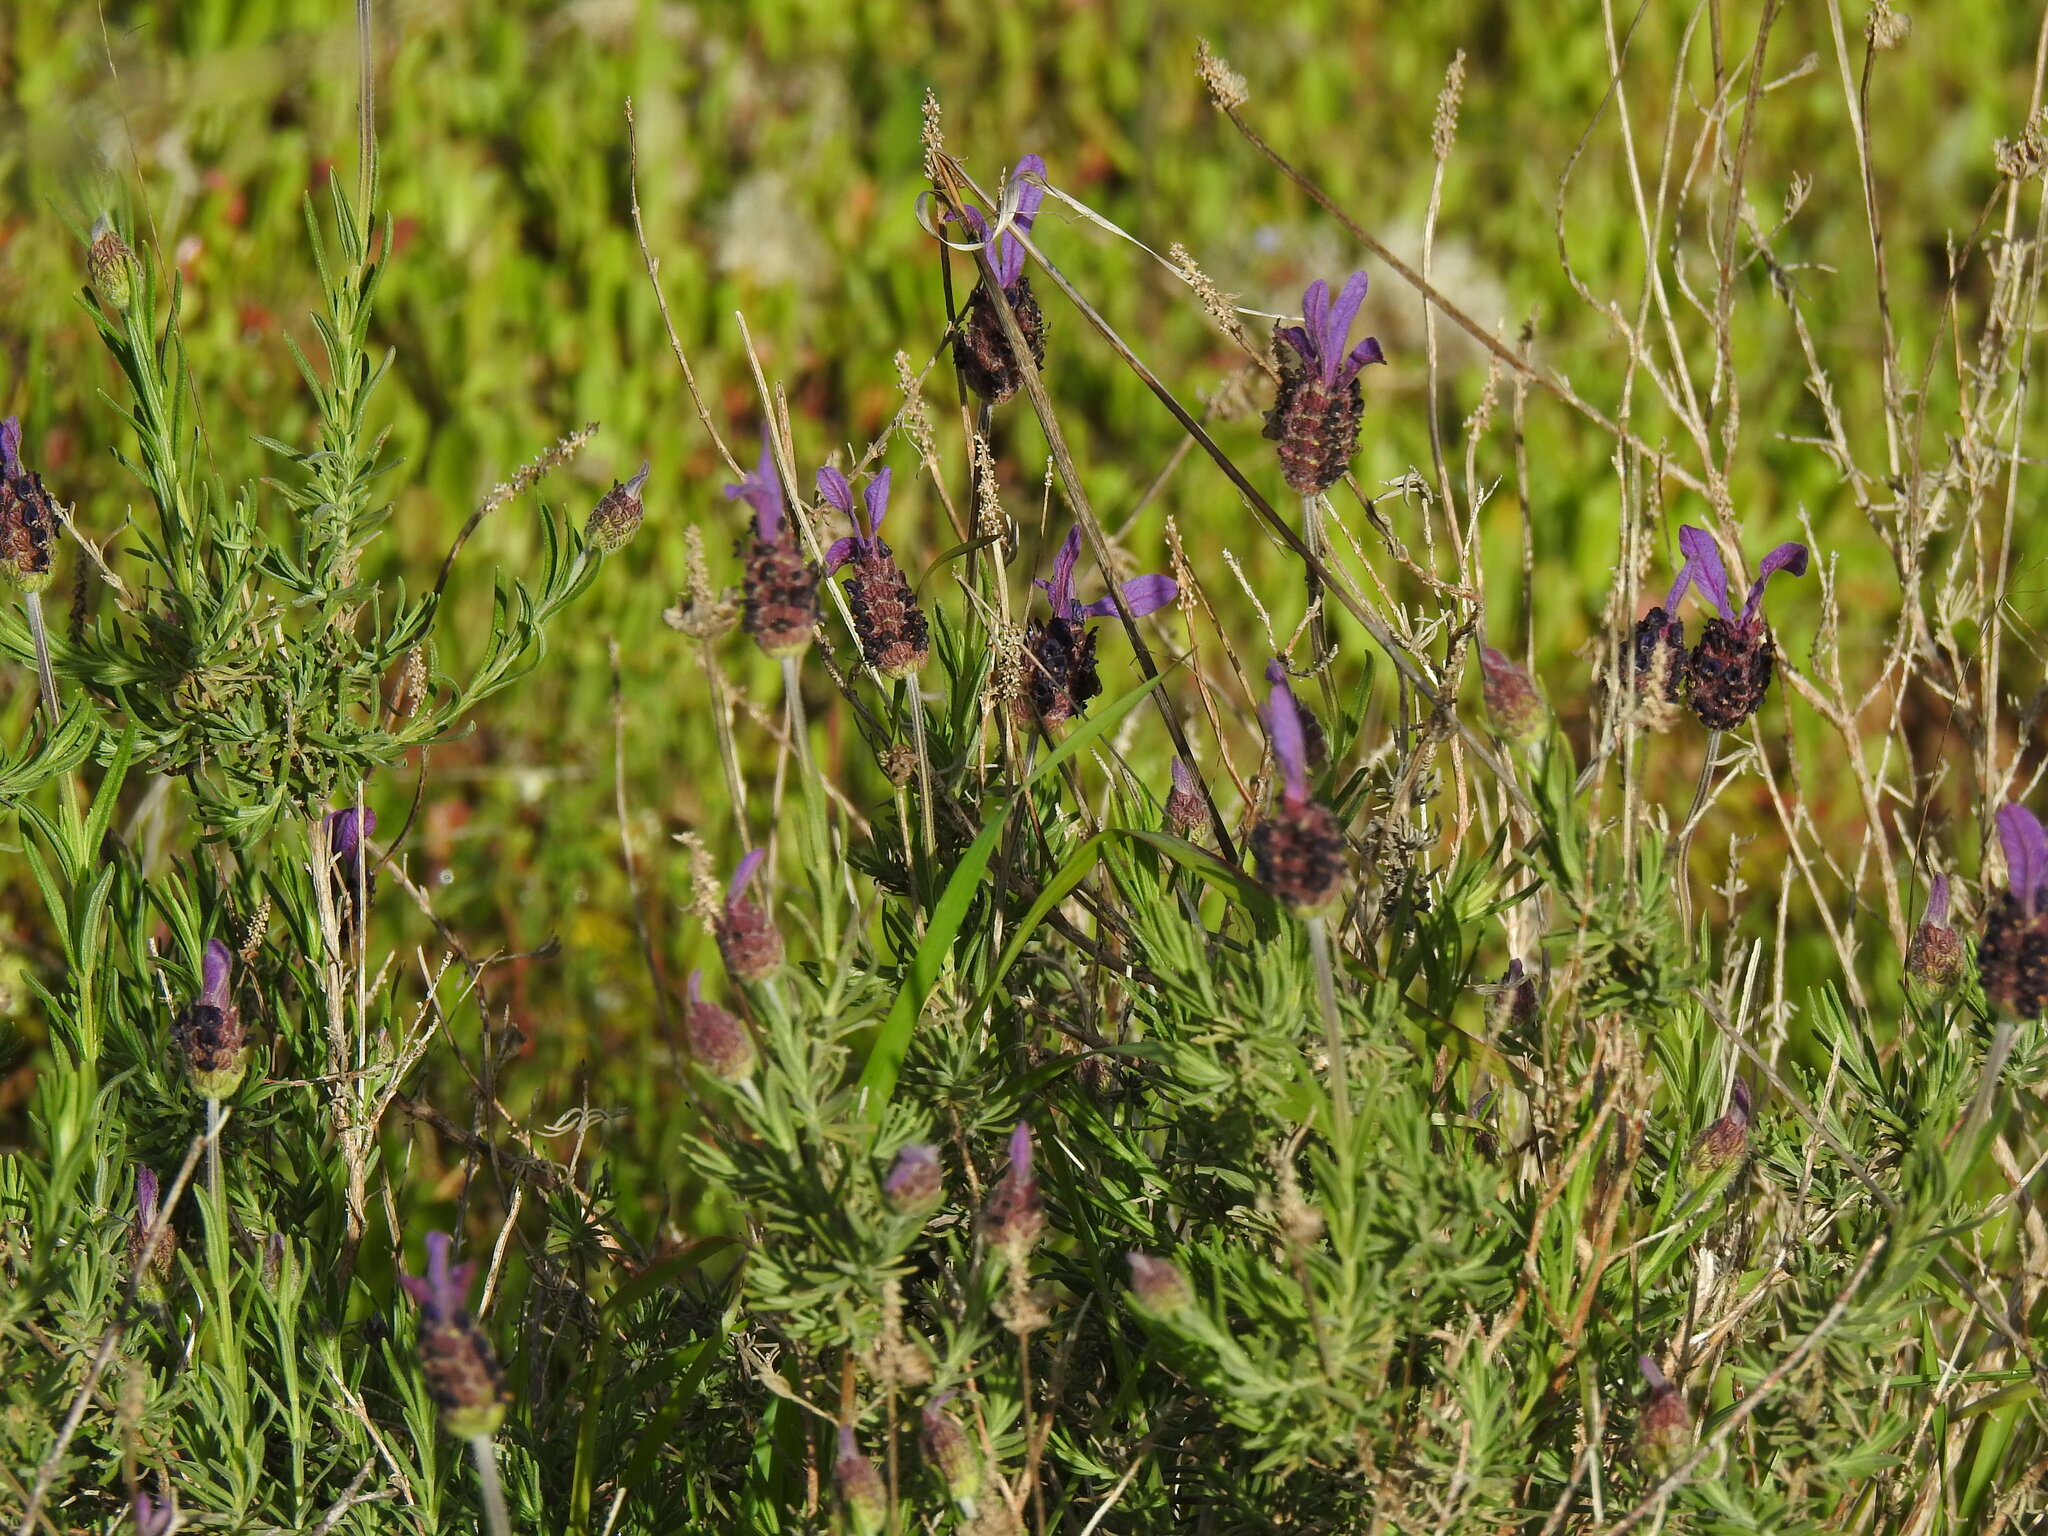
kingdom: Plantae
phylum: Tracheophyta
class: Magnoliopsida
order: Lamiales
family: Lamiaceae
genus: Lavandula
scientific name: Lavandula pedunculata
